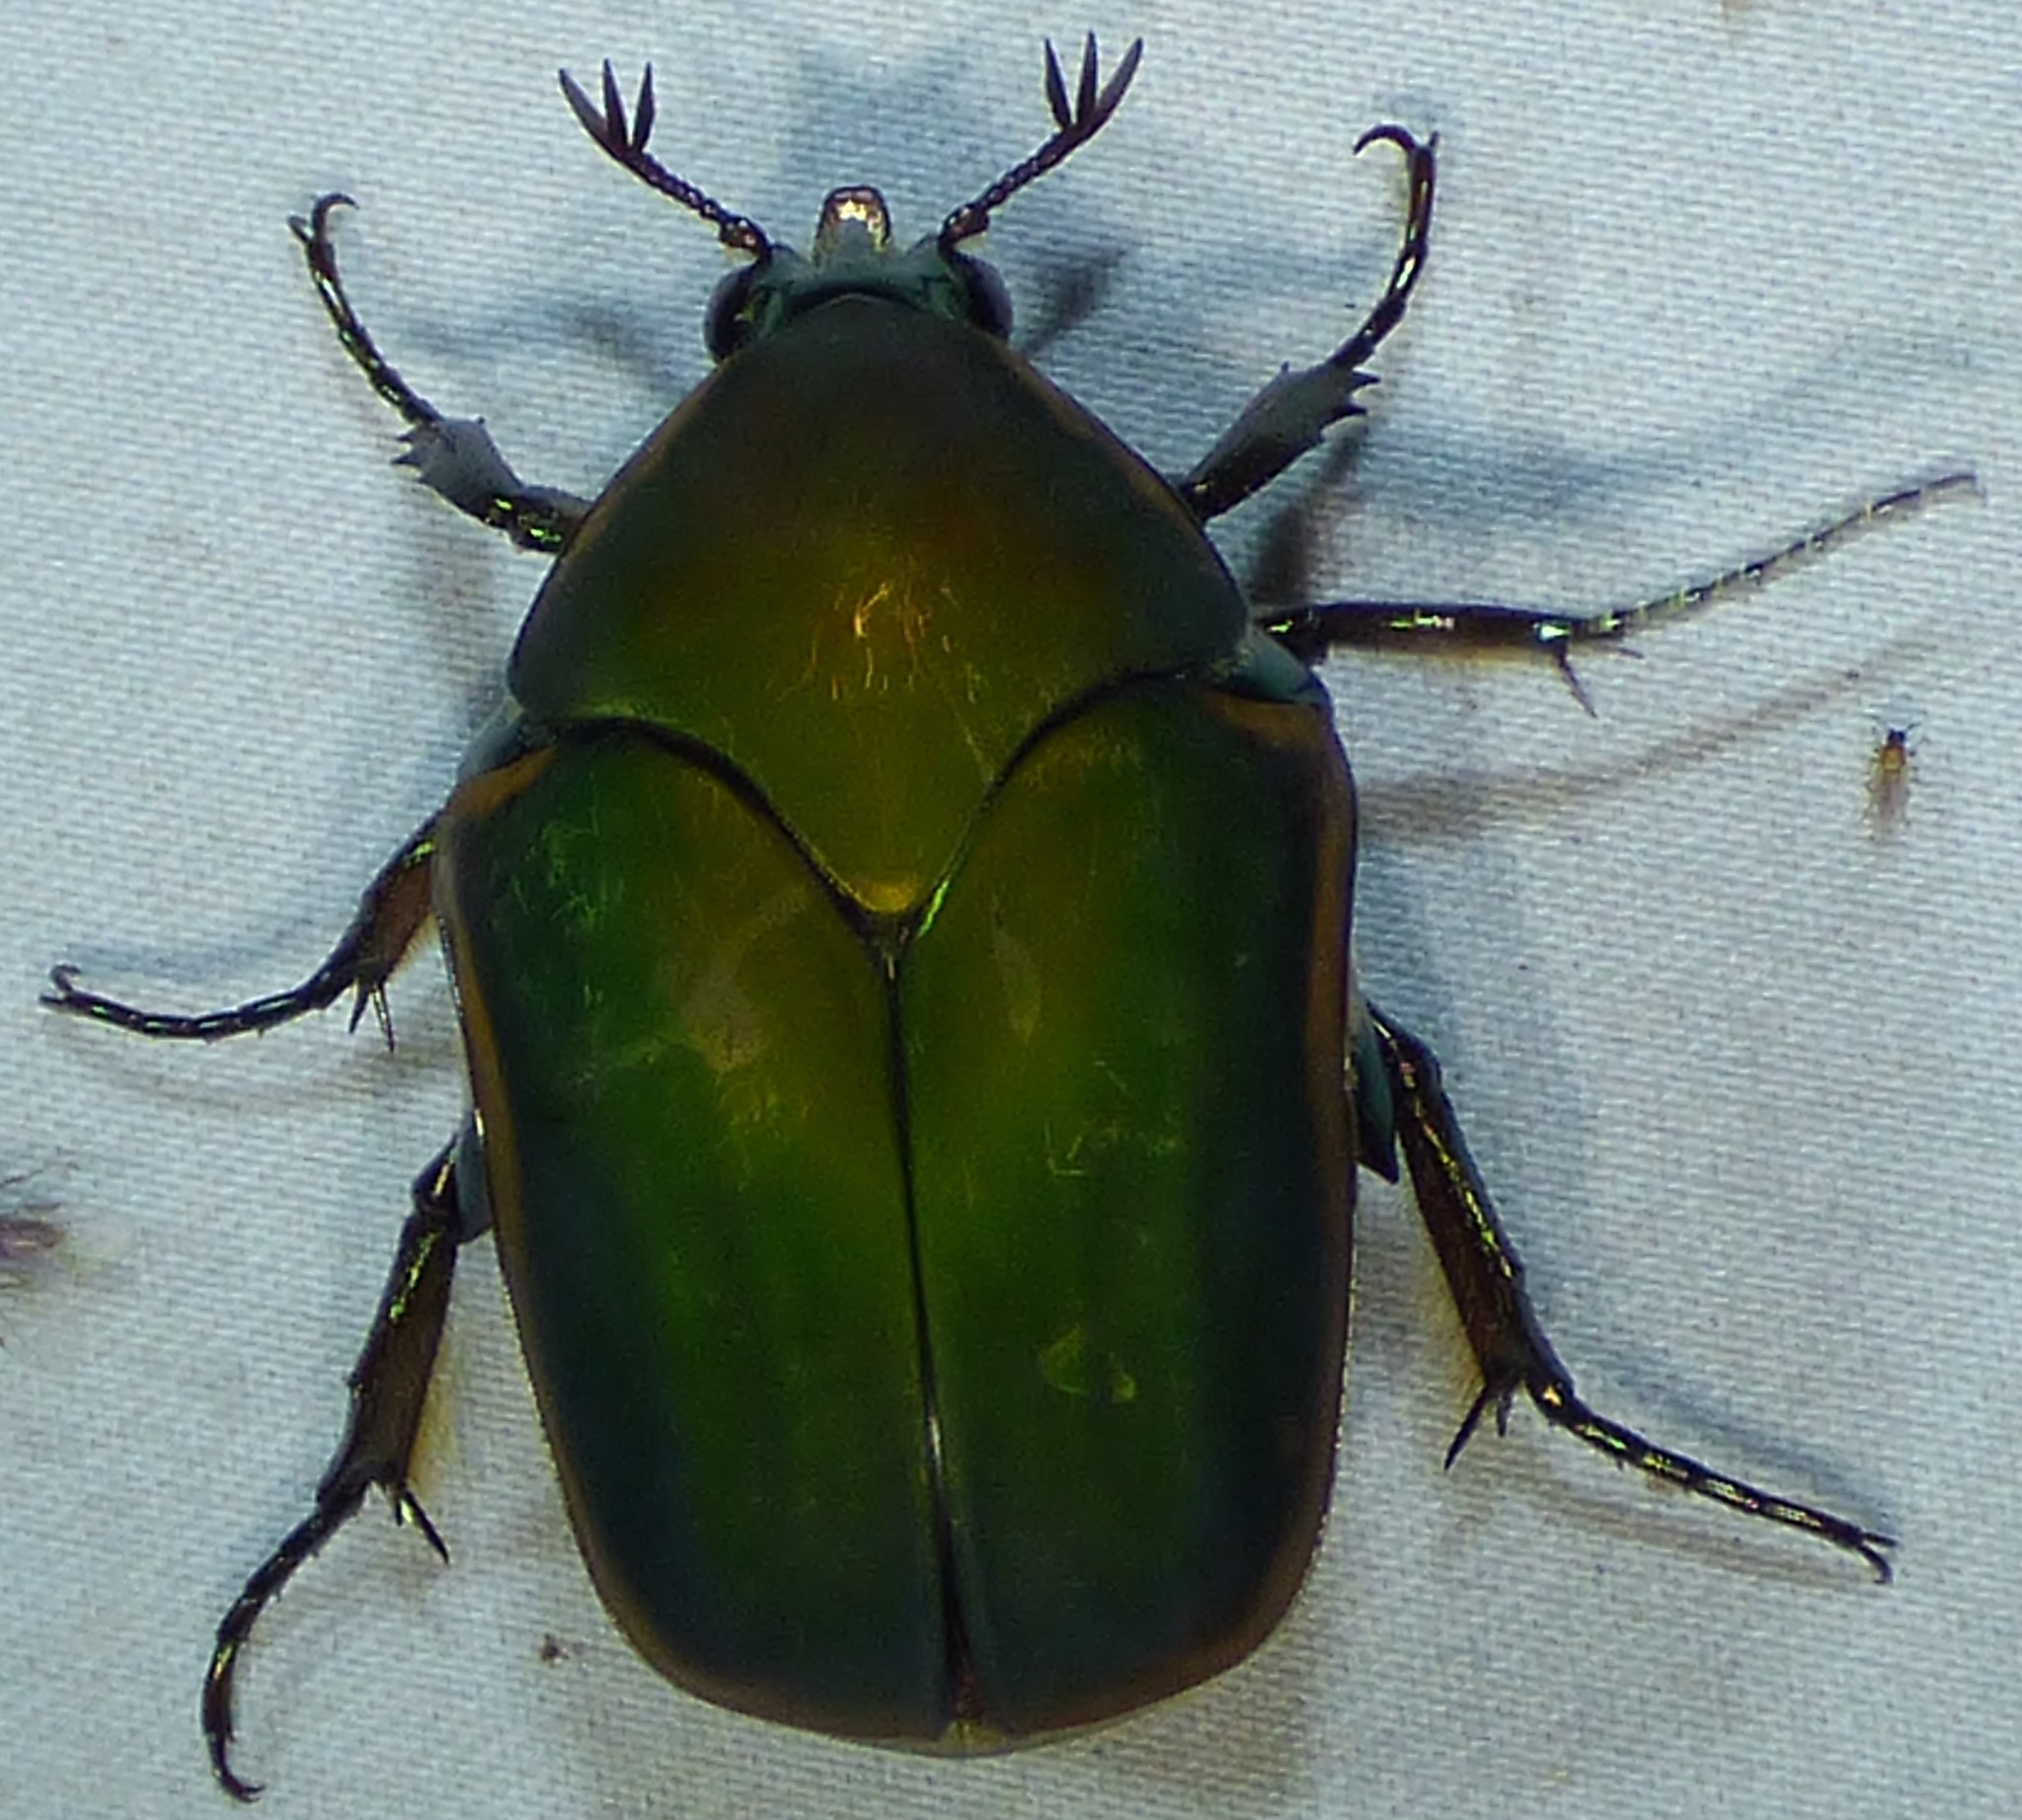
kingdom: Animalia
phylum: Arthropoda
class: Insecta
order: Coleoptera
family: Scarabaeidae
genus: Cotinis
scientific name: Cotinis nitida
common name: Common green june beetle
